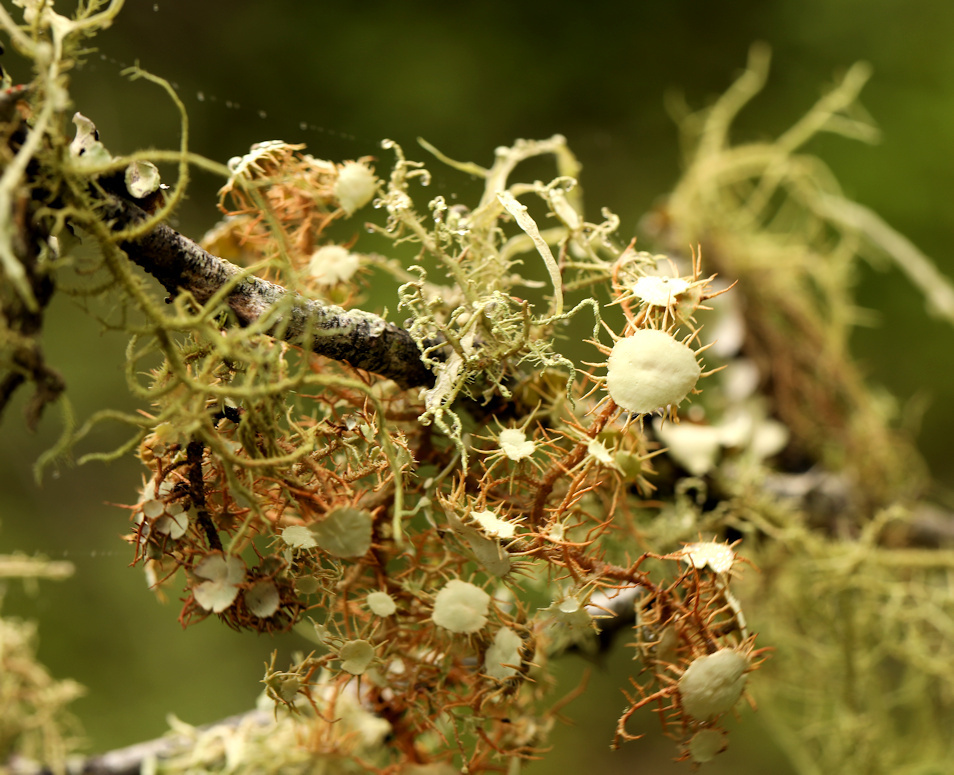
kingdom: Fungi
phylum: Ascomycota
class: Lecanoromycetes
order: Lecanorales
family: Parmeliaceae
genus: Usnea
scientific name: Usnea erinacea
